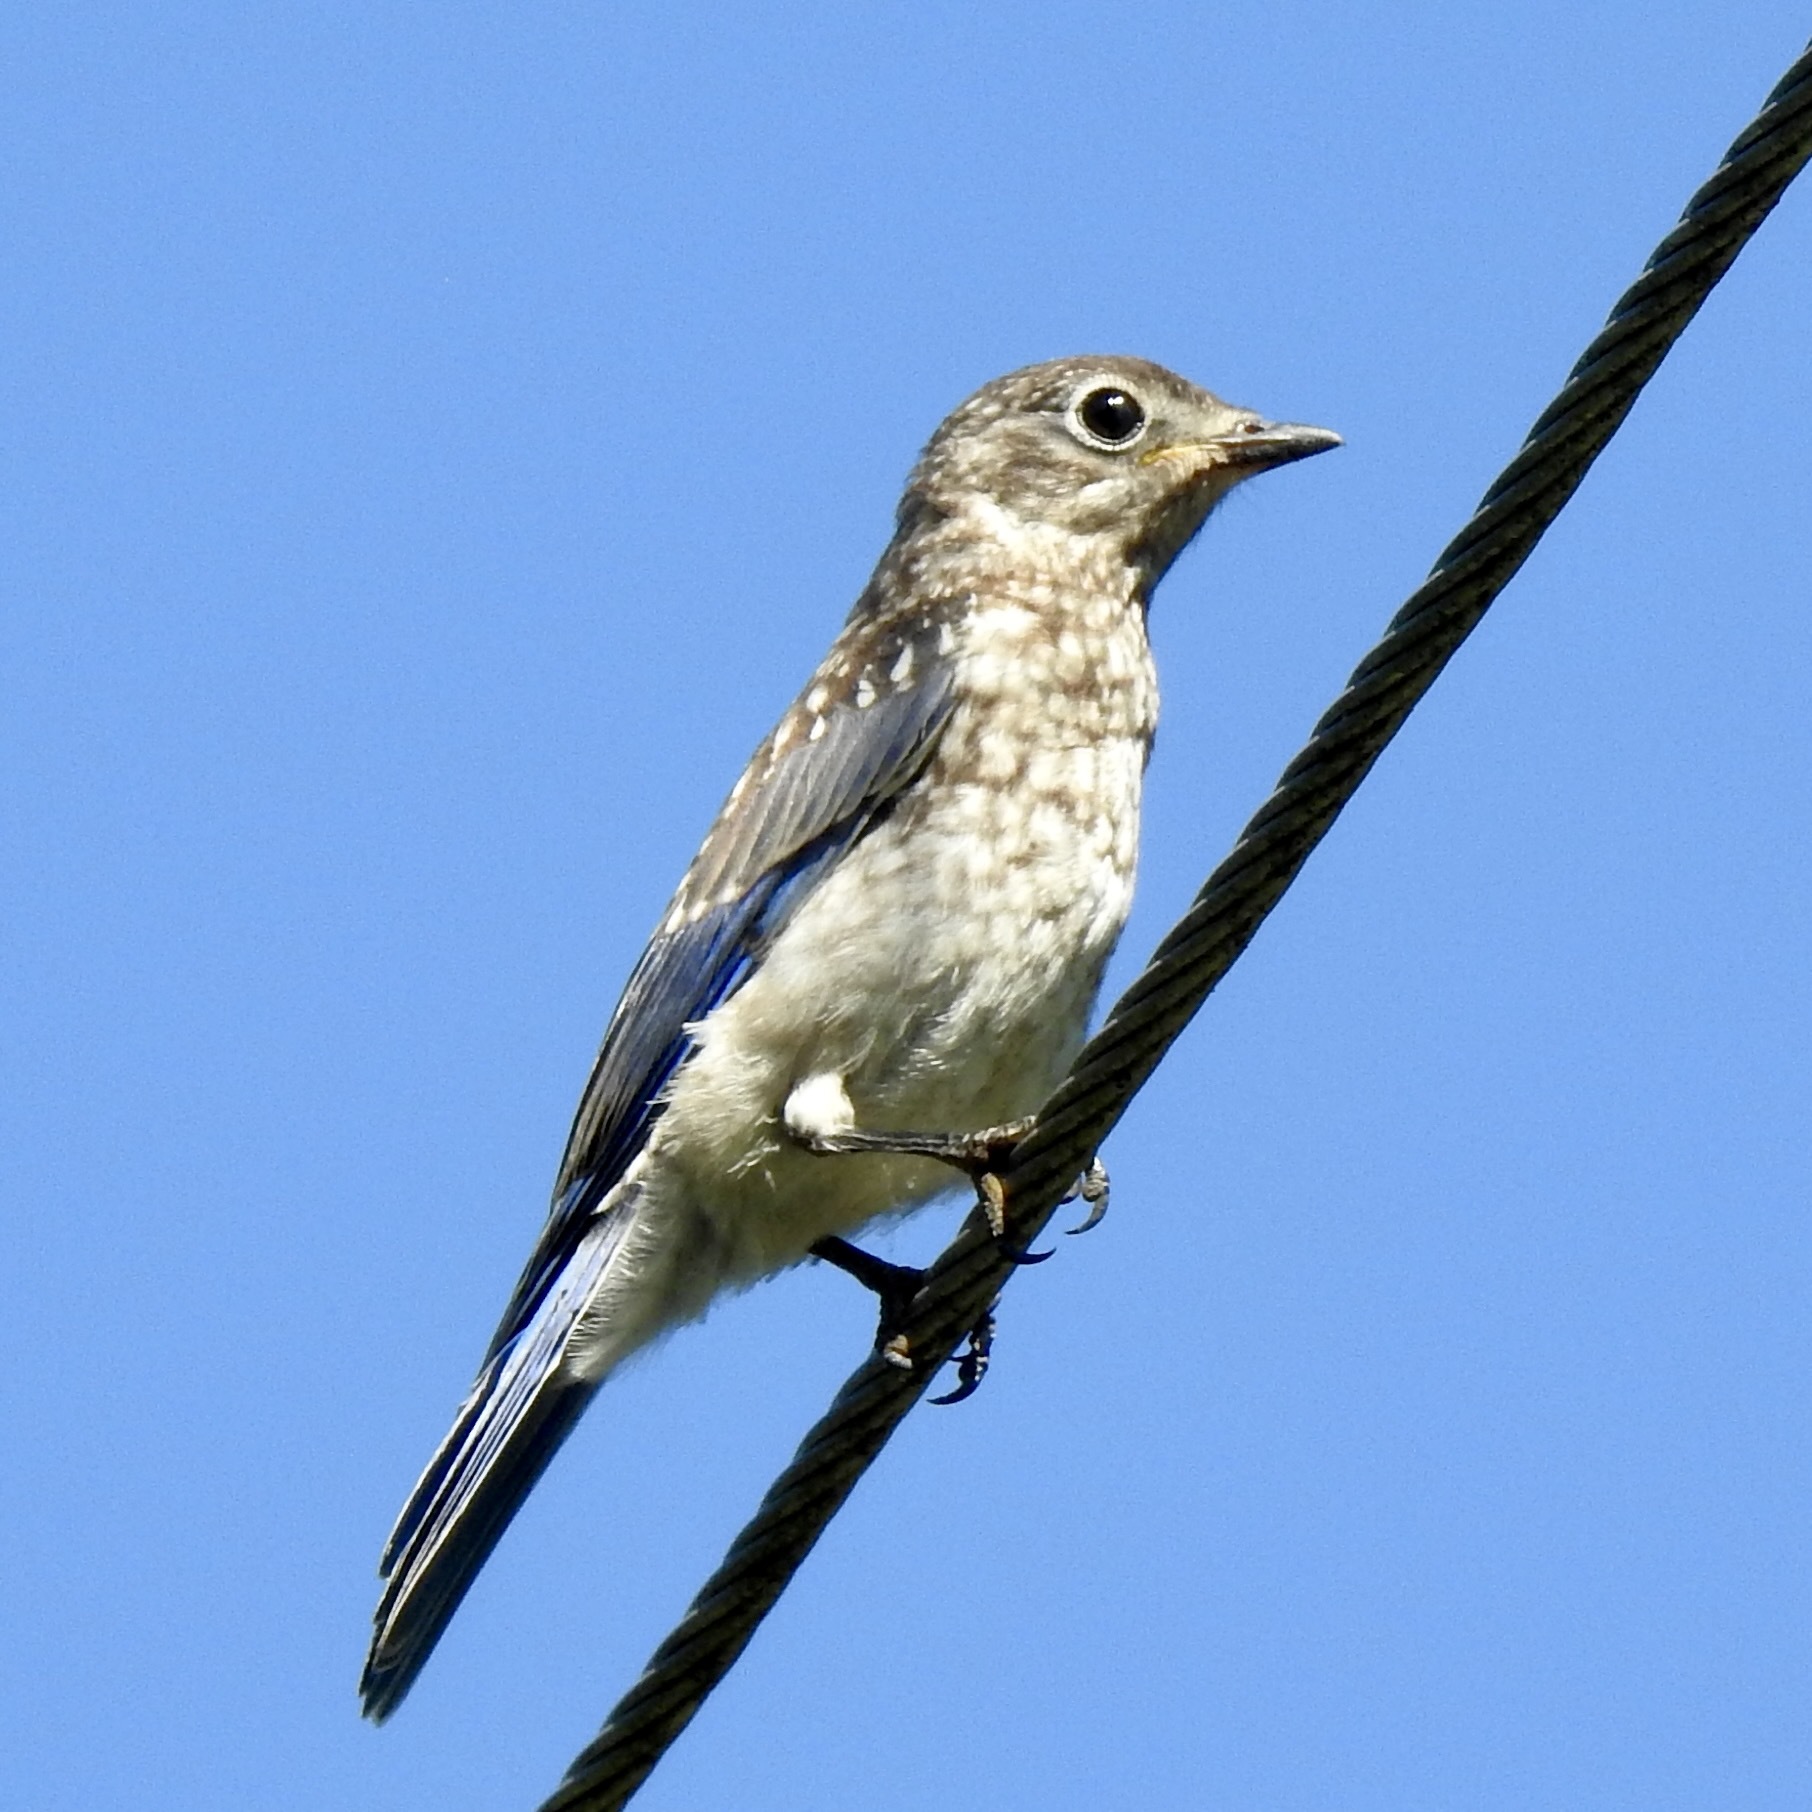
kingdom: Animalia
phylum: Chordata
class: Aves
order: Passeriformes
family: Turdidae
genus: Sialia
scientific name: Sialia sialis
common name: Eastern bluebird
